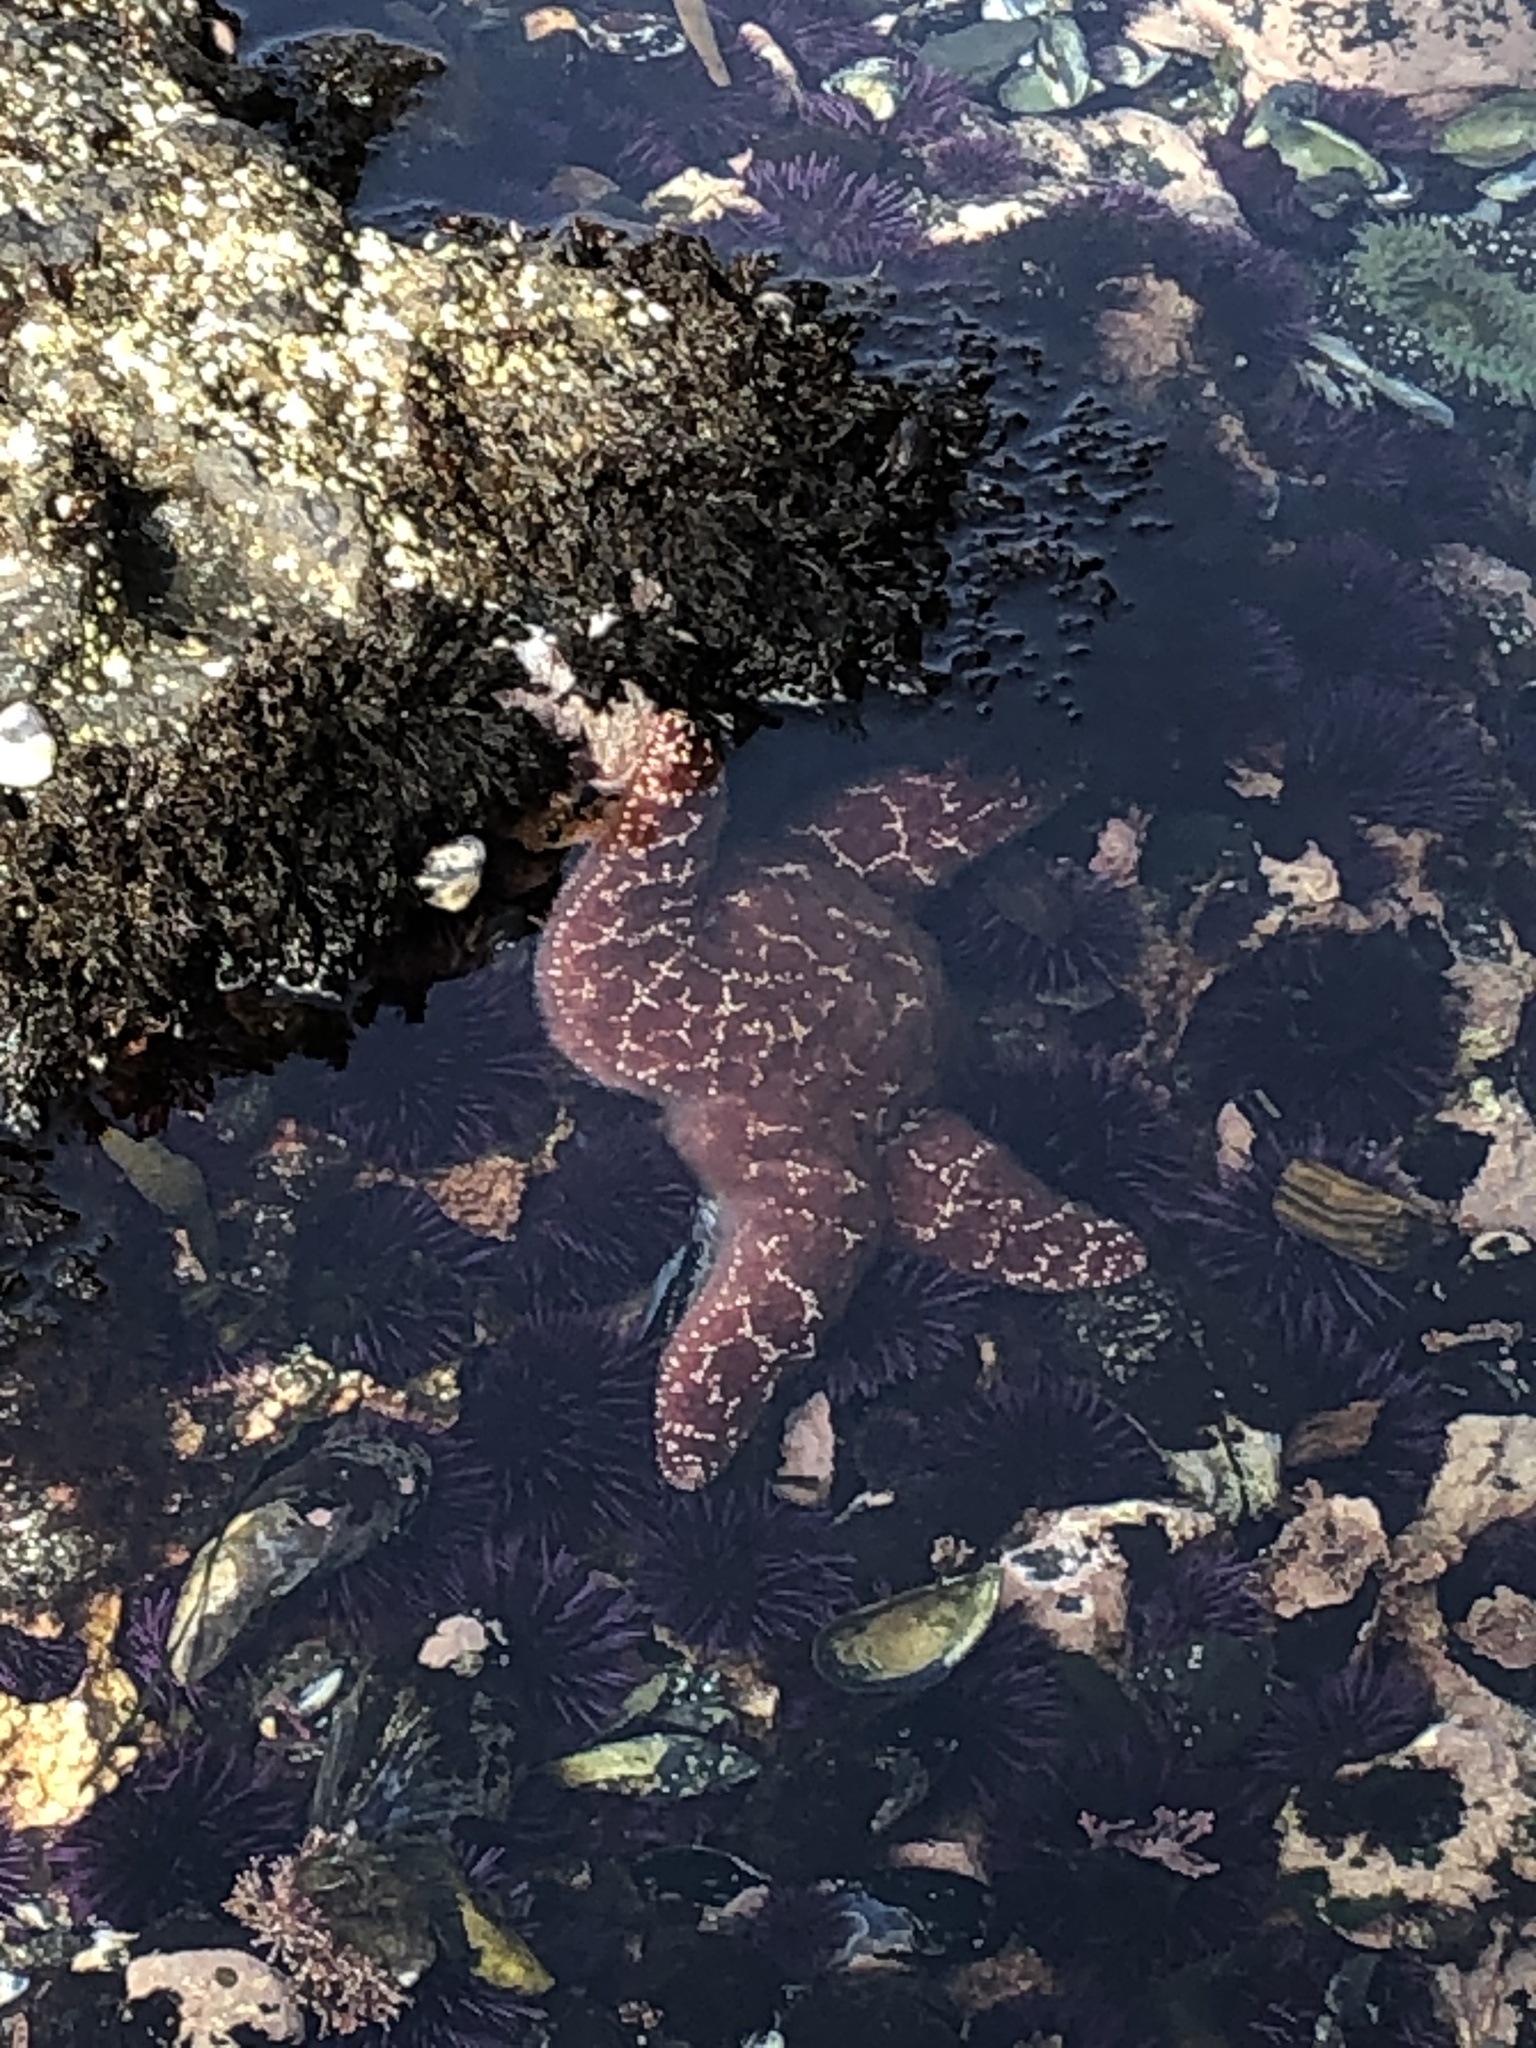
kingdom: Animalia
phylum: Echinodermata
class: Asteroidea
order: Forcipulatida
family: Asteriidae
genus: Pisaster
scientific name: Pisaster ochraceus
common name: Ochre stars
